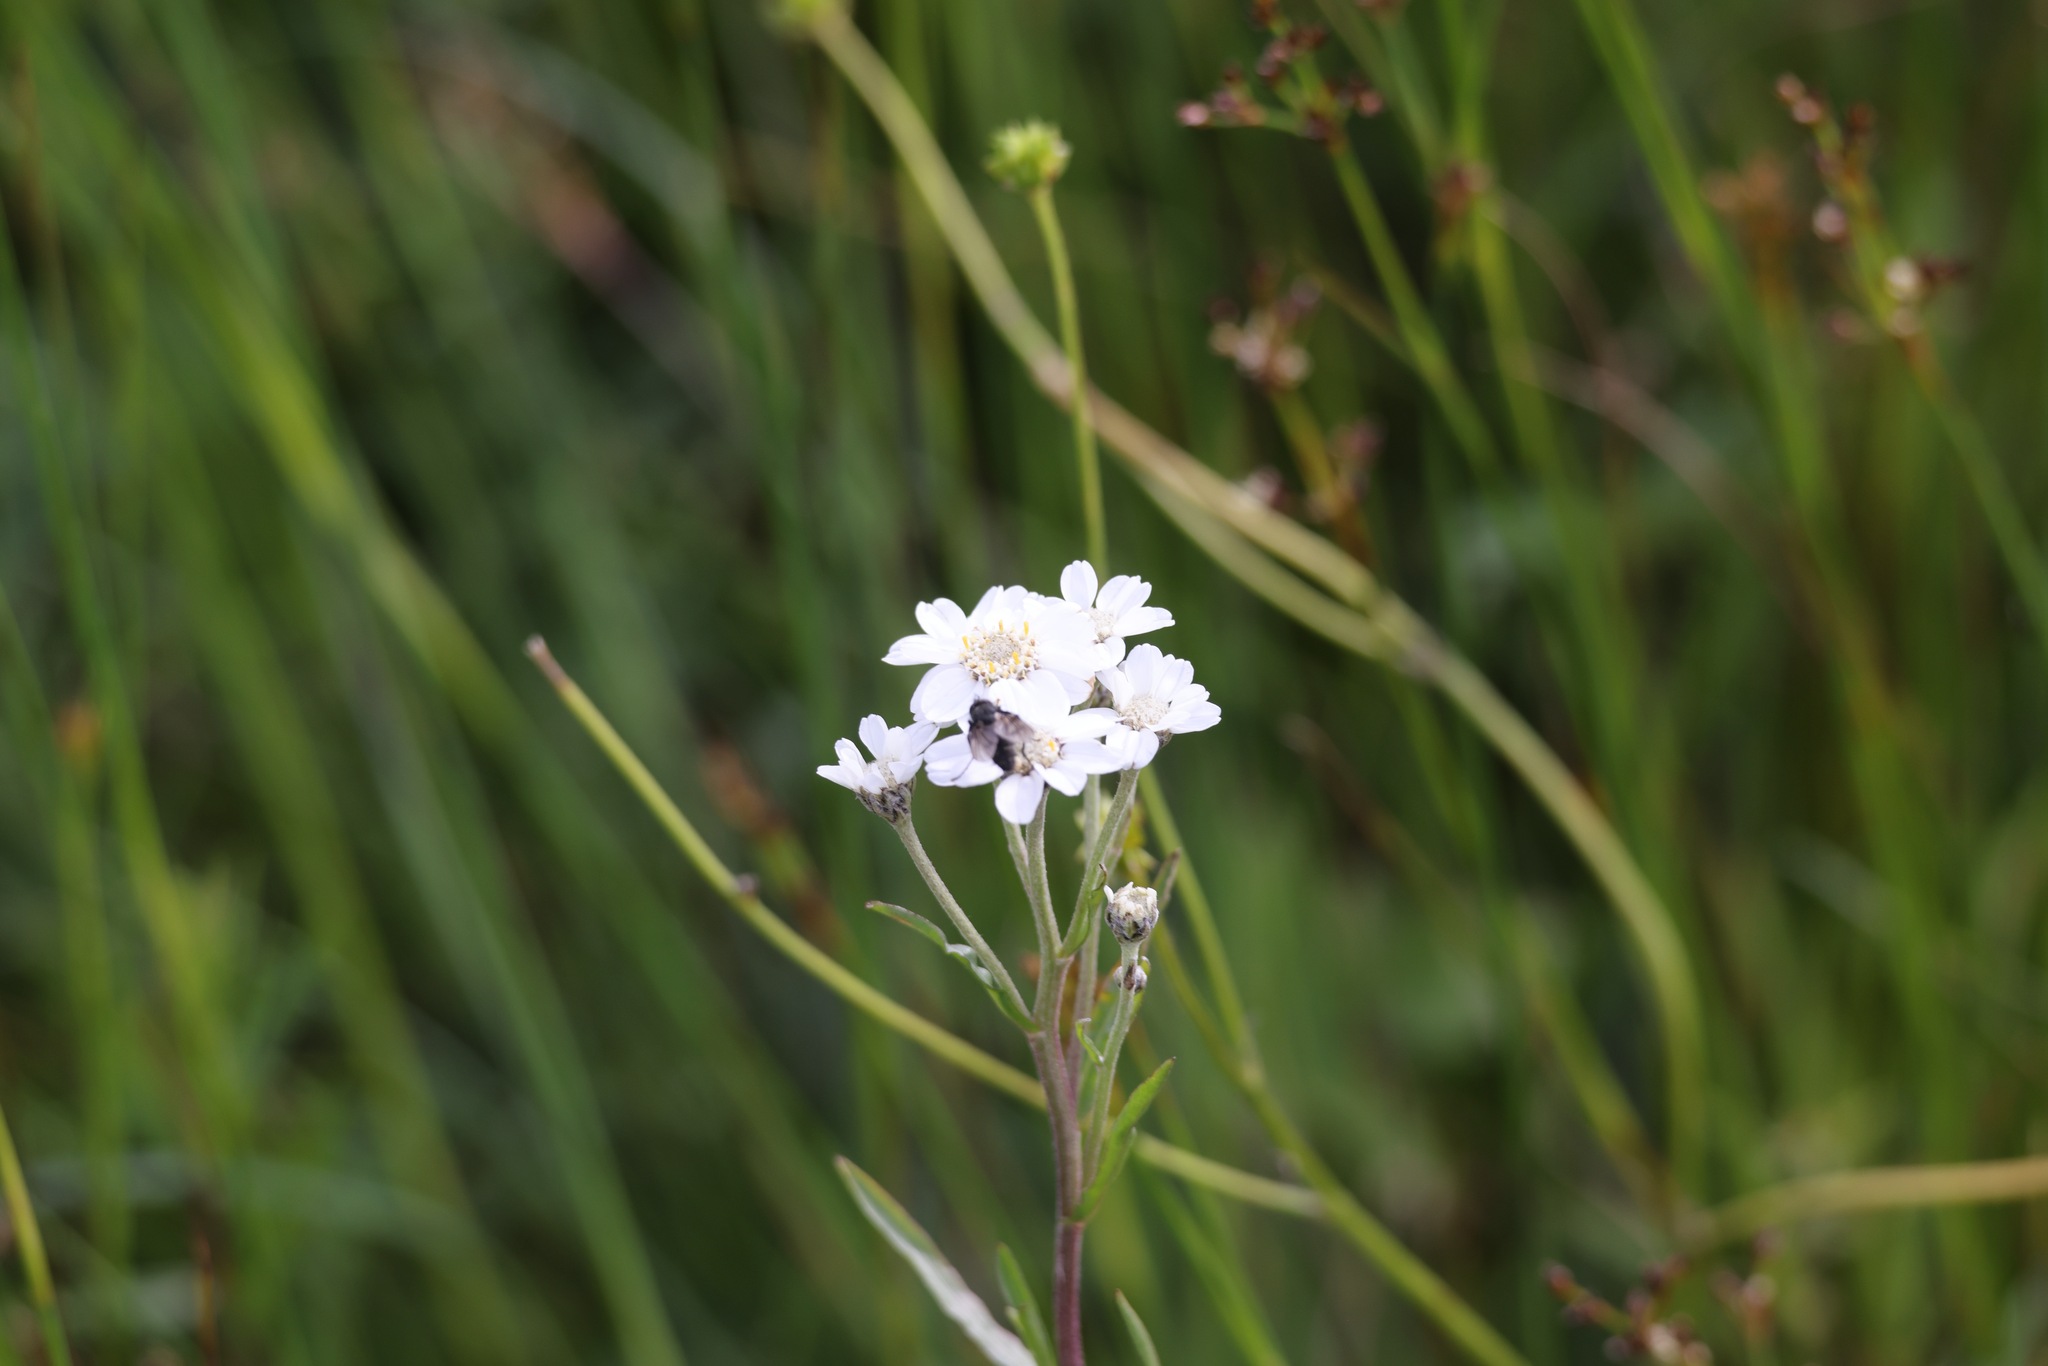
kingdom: Plantae
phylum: Tracheophyta
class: Magnoliopsida
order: Asterales
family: Asteraceae
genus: Achillea
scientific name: Achillea ptarmica
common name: Sneezeweed
